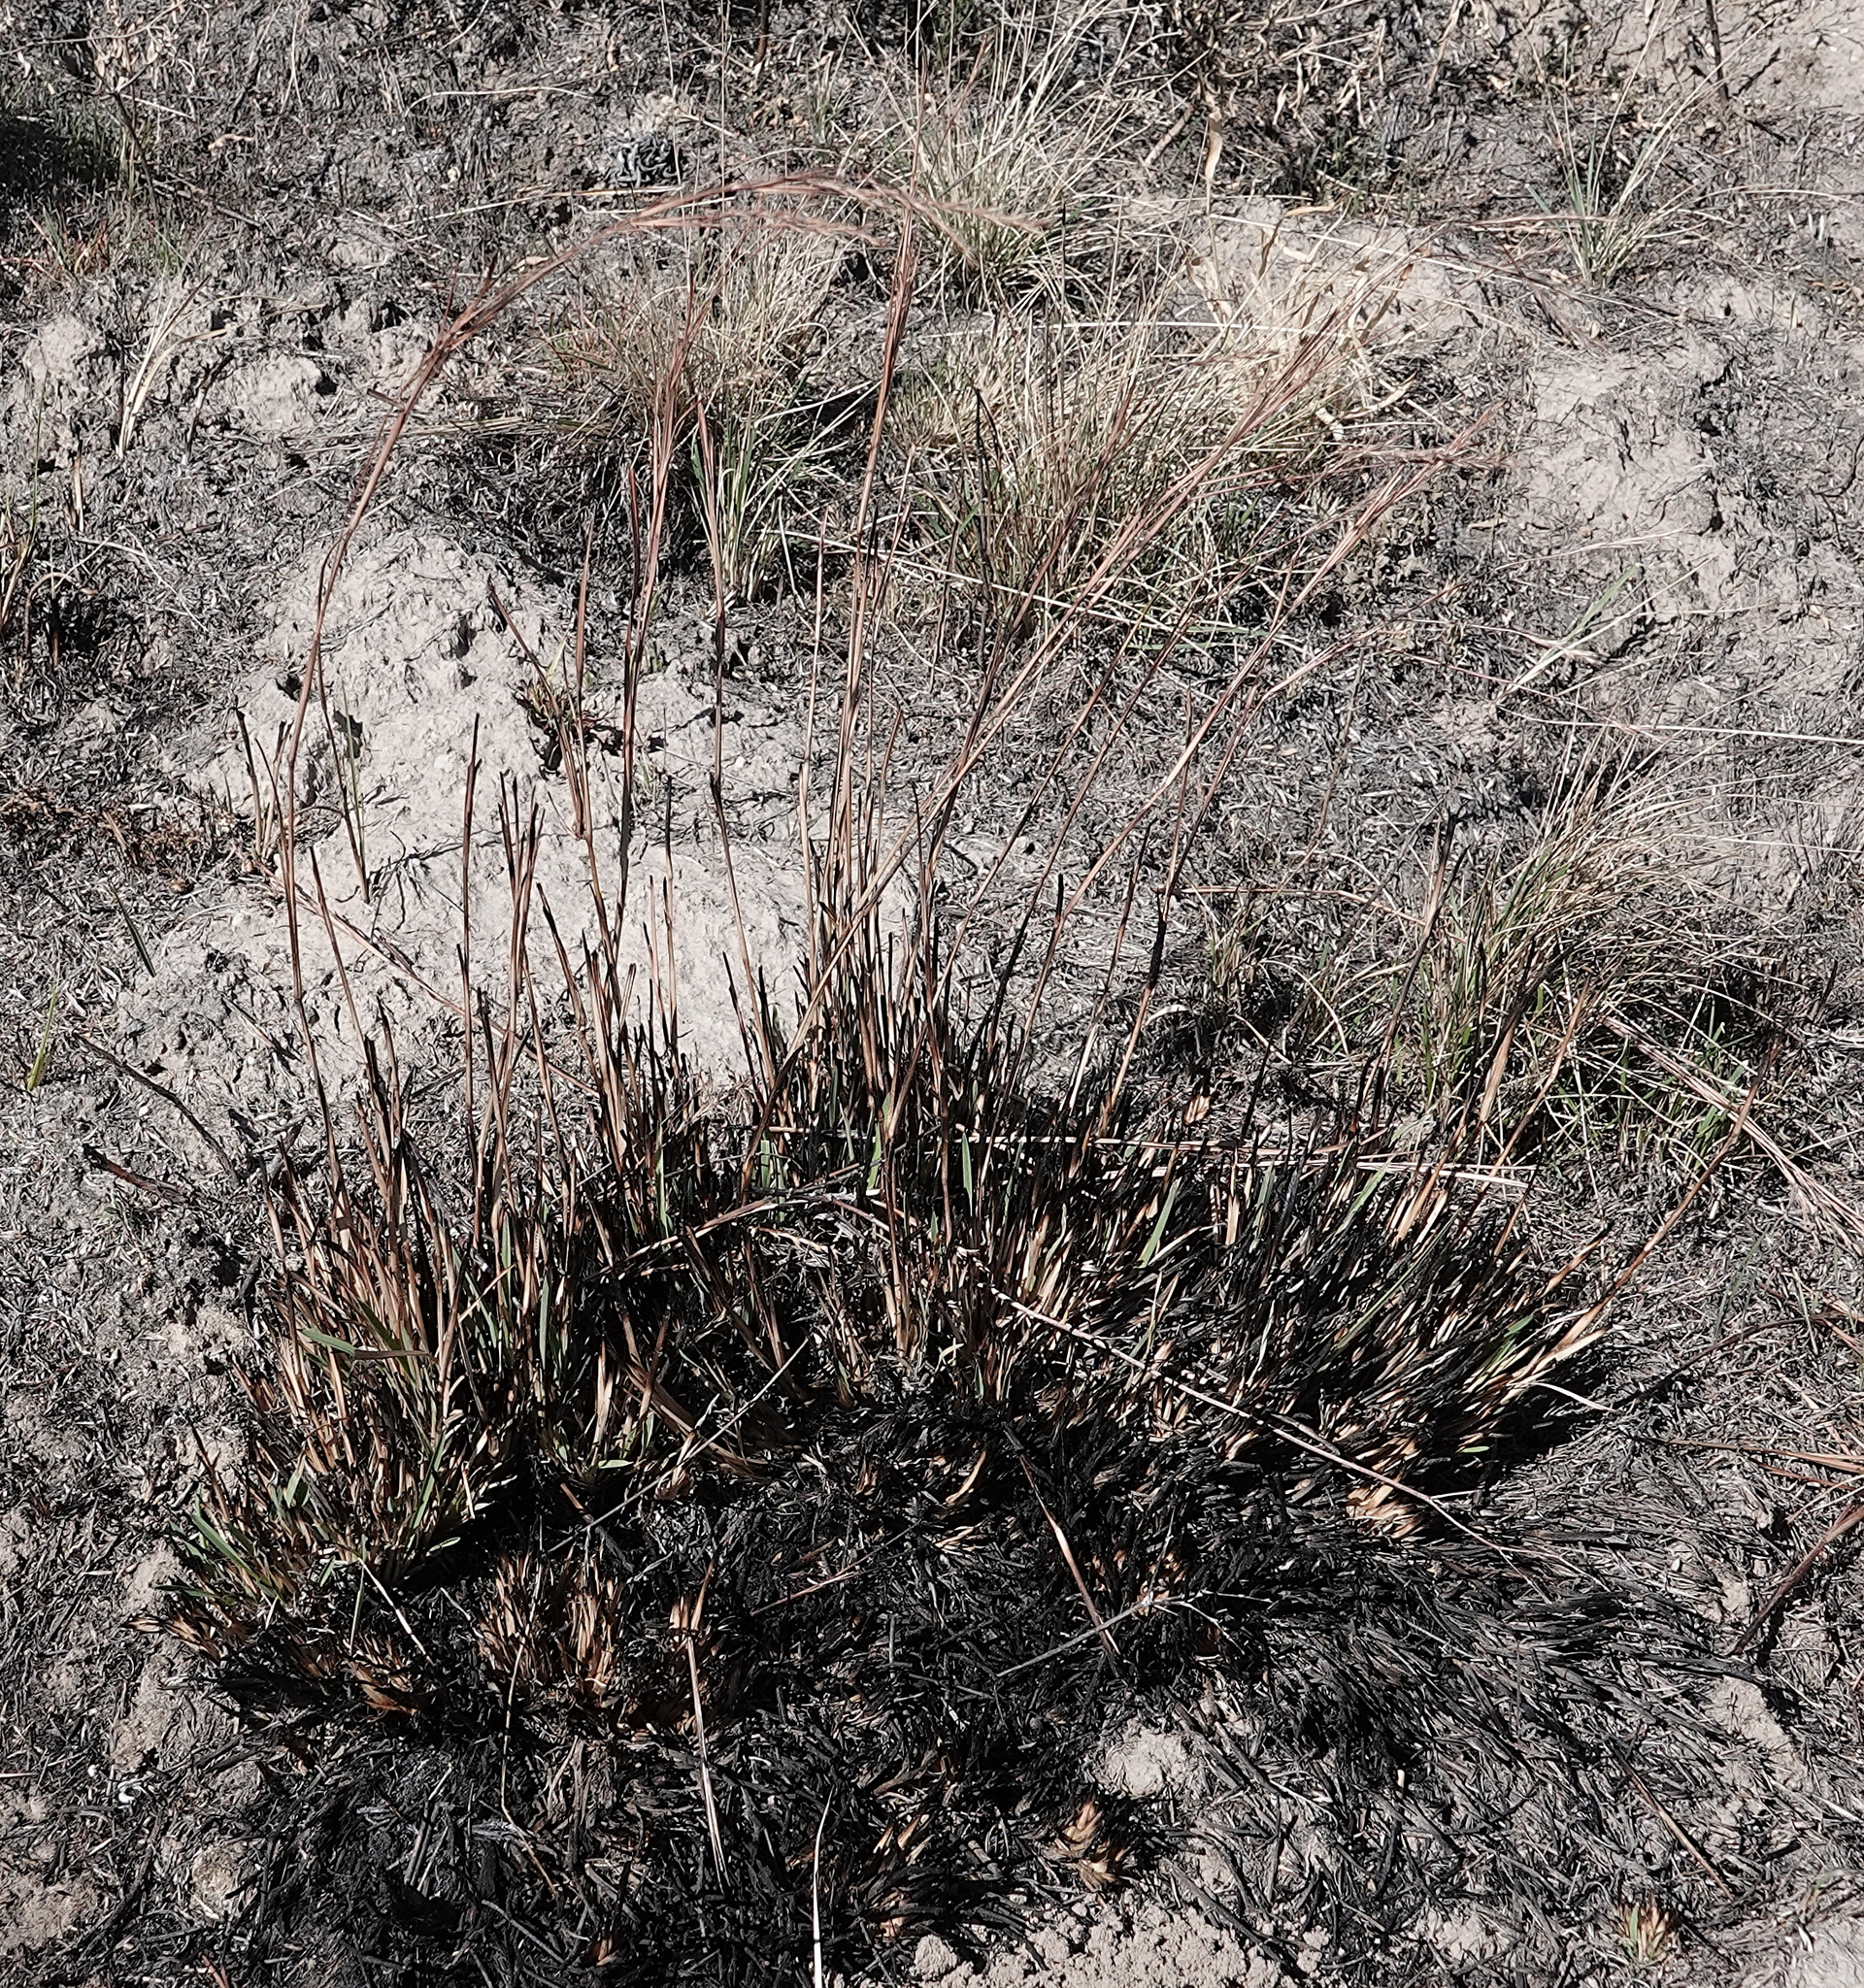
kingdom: Plantae
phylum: Tracheophyta
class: Liliopsida
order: Poales
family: Poaceae
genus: Schizachyrium
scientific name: Schizachyrium scoparium
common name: Little bluestem
